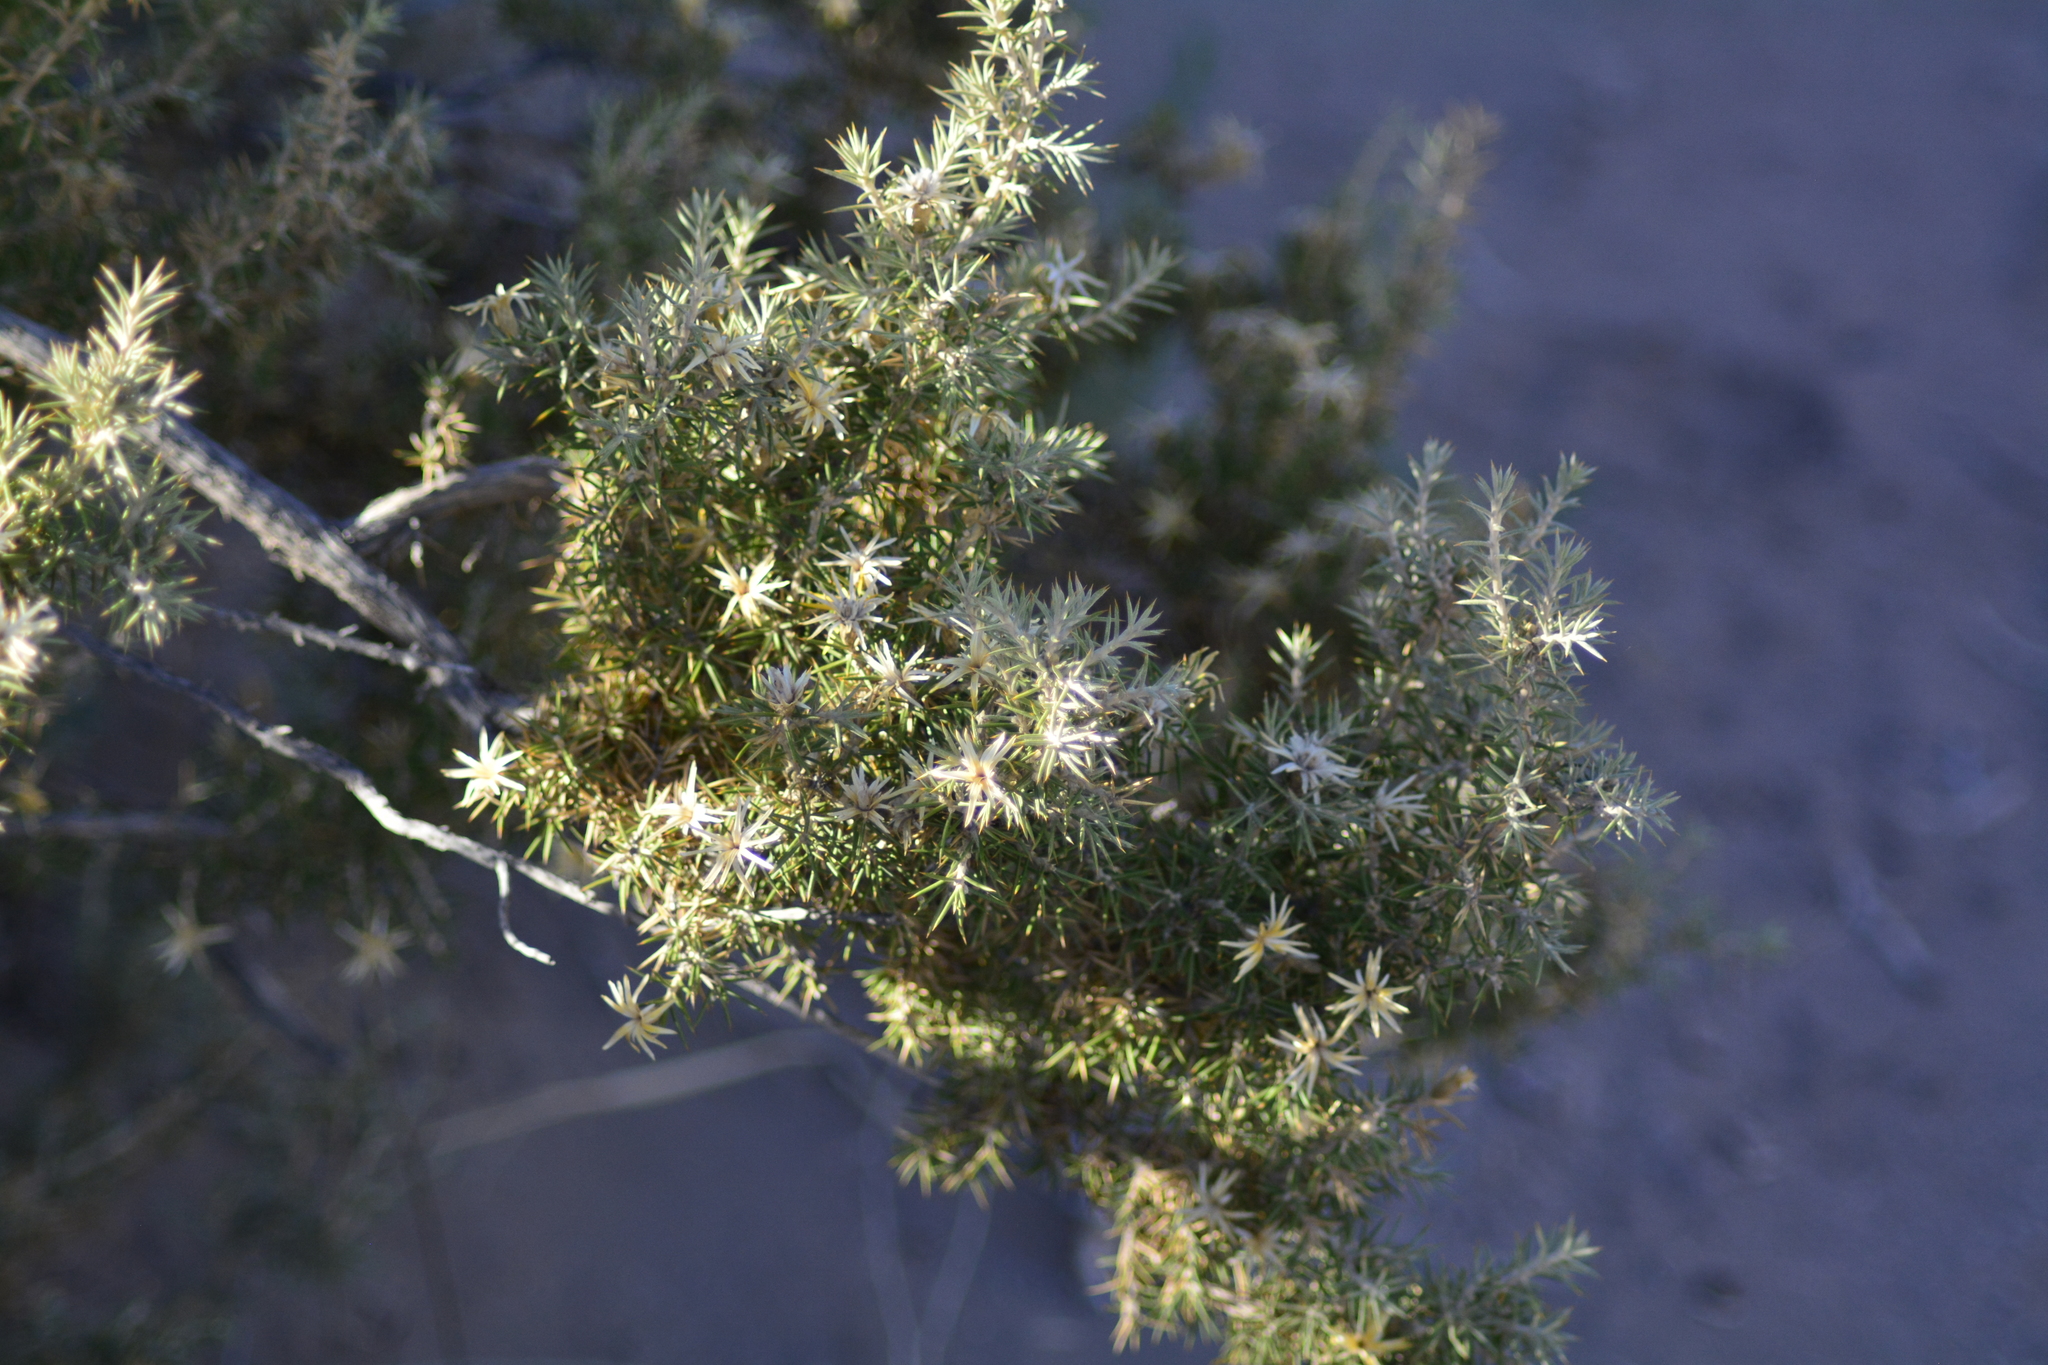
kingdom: Plantae
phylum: Tracheophyta
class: Magnoliopsida
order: Asterales
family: Asteraceae
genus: Chuquiraga
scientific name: Chuquiraga erinacea
